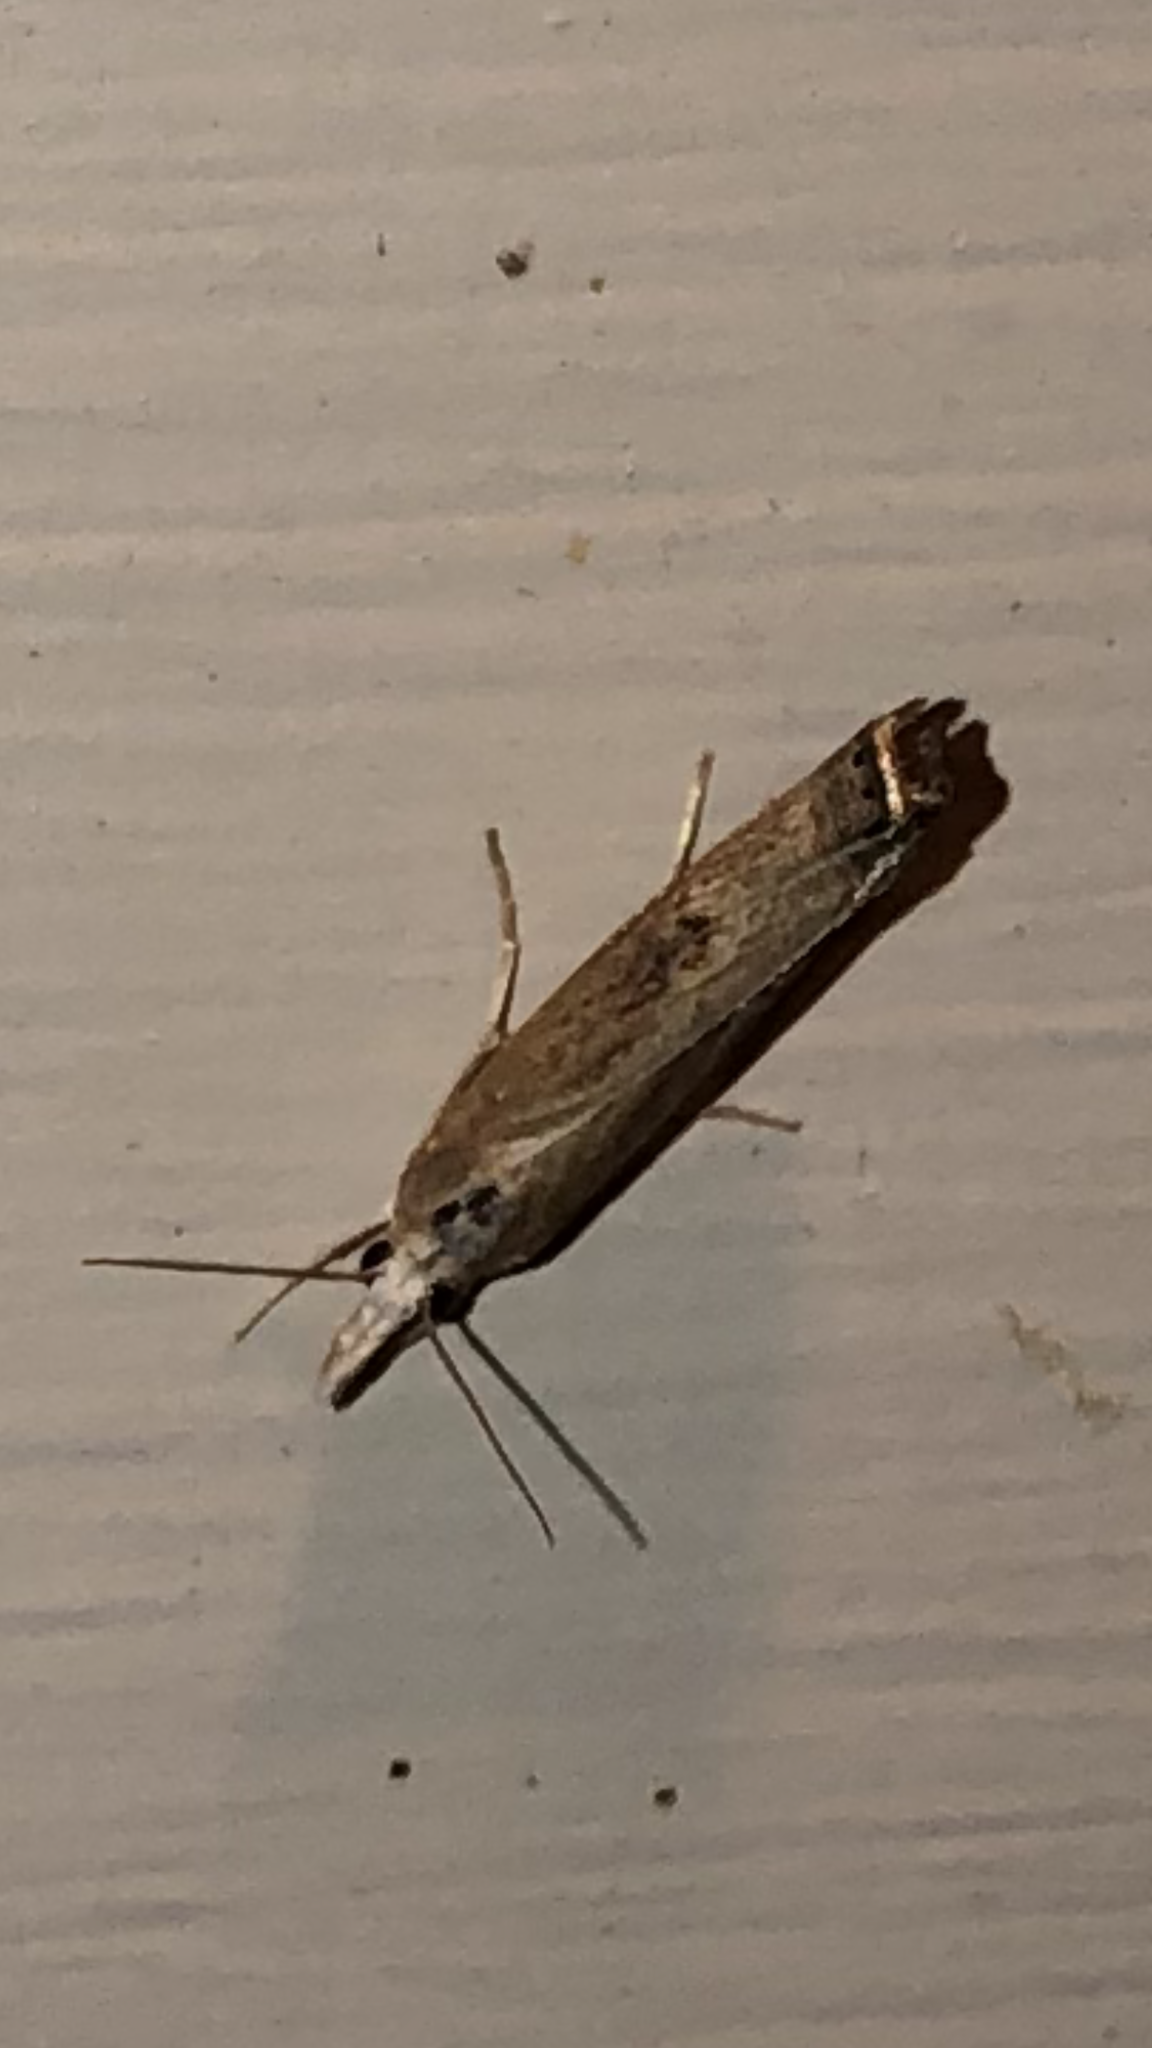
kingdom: Animalia
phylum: Arthropoda
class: Insecta
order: Lepidoptera
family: Crambidae
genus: Parapediasia
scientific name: Parapediasia teterellus
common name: Bluegrass webworm moth
